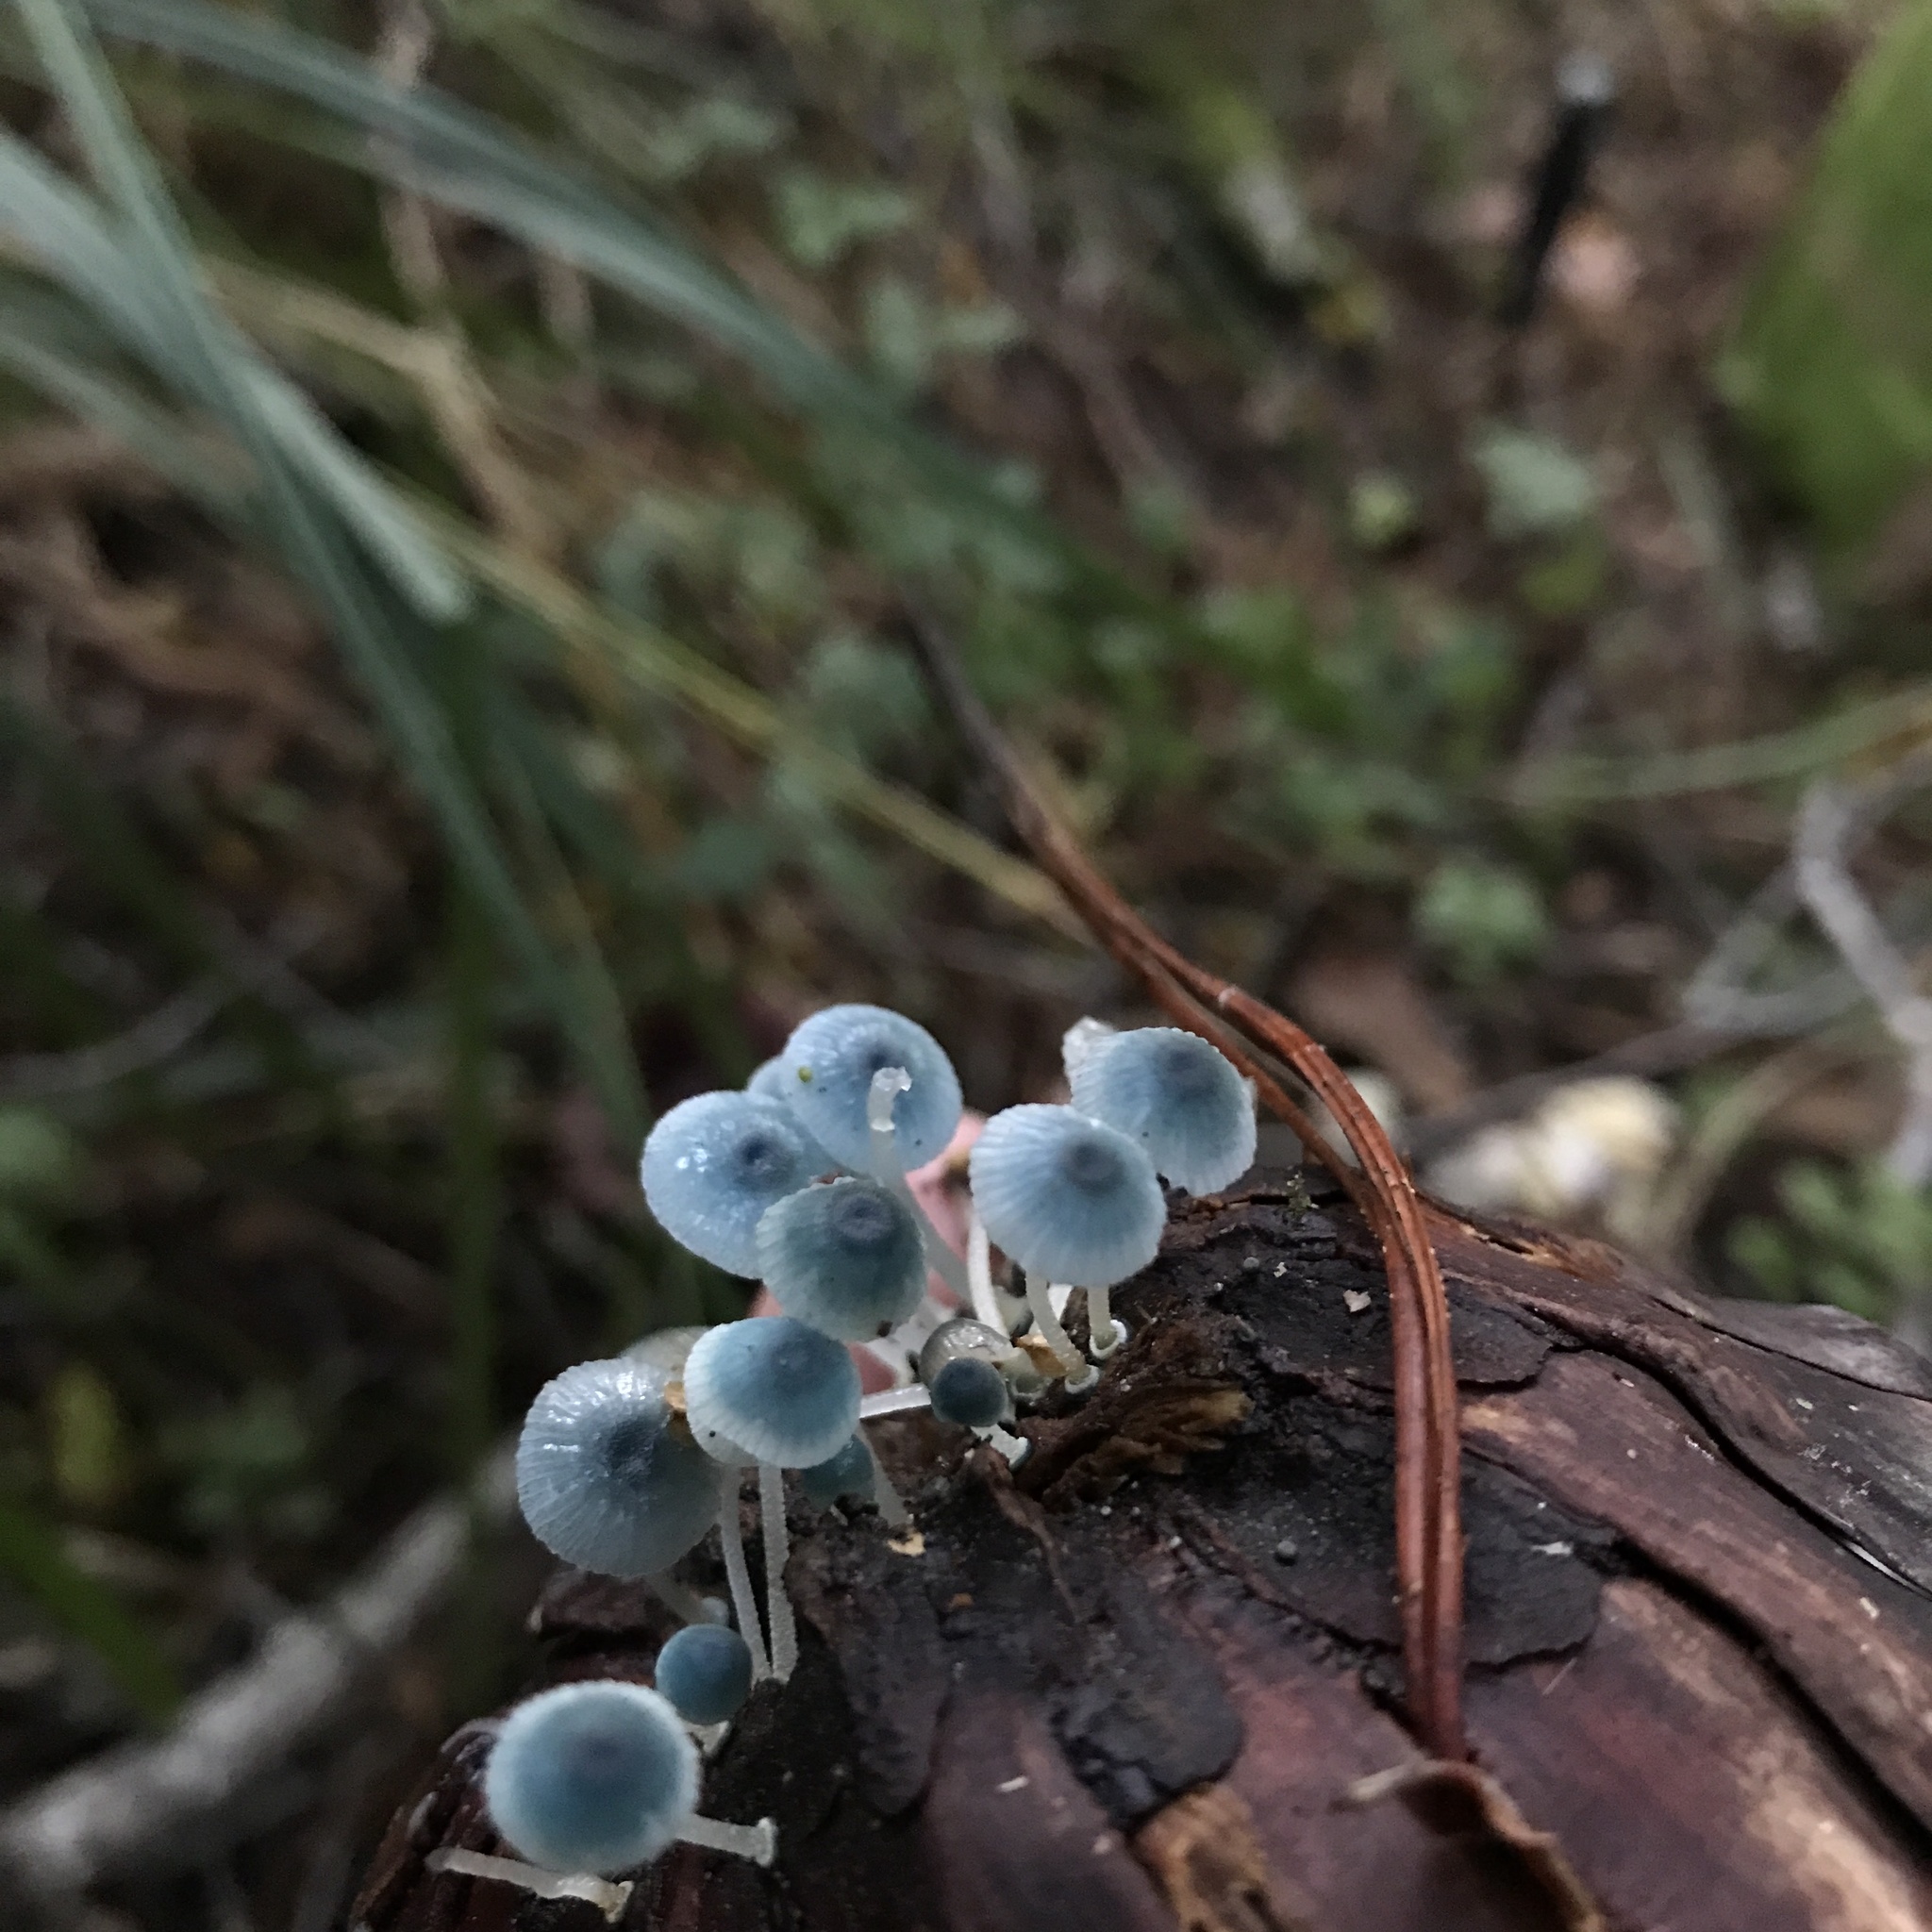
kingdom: Fungi
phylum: Basidiomycota
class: Agaricomycetes
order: Agaricales
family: Mycenaceae
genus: Mycena
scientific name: Mycena cyanocephala
